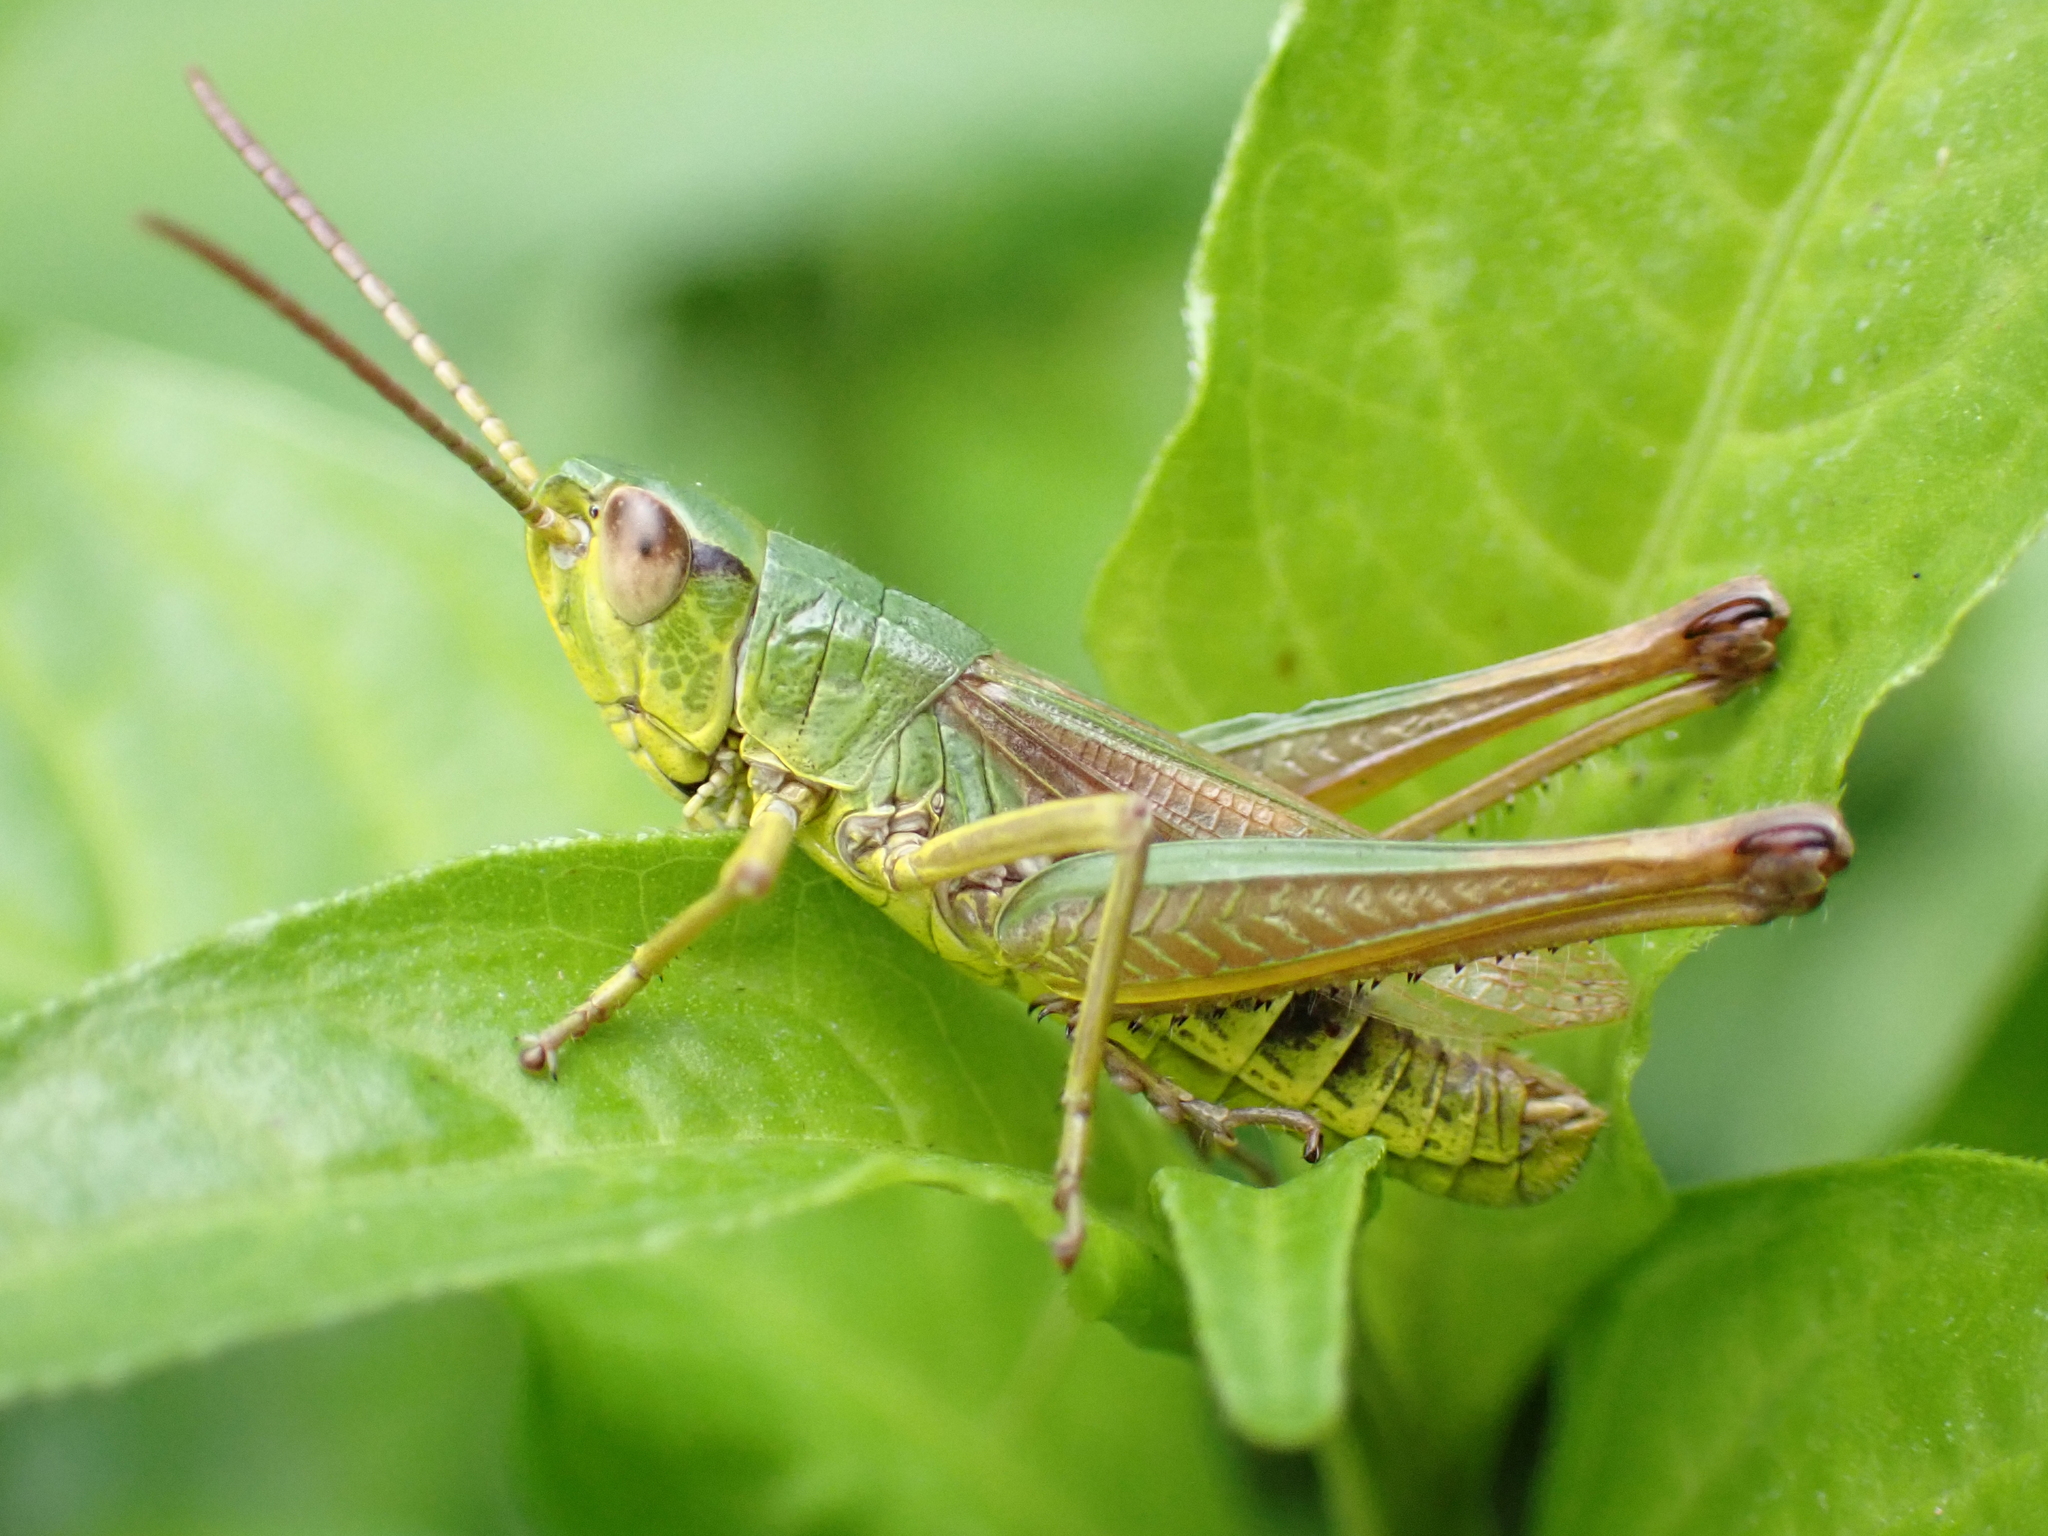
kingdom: Animalia
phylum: Arthropoda
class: Insecta
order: Orthoptera
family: Acrididae
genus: Pseudochorthippus
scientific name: Pseudochorthippus parallelus
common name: Meadow grasshopper
